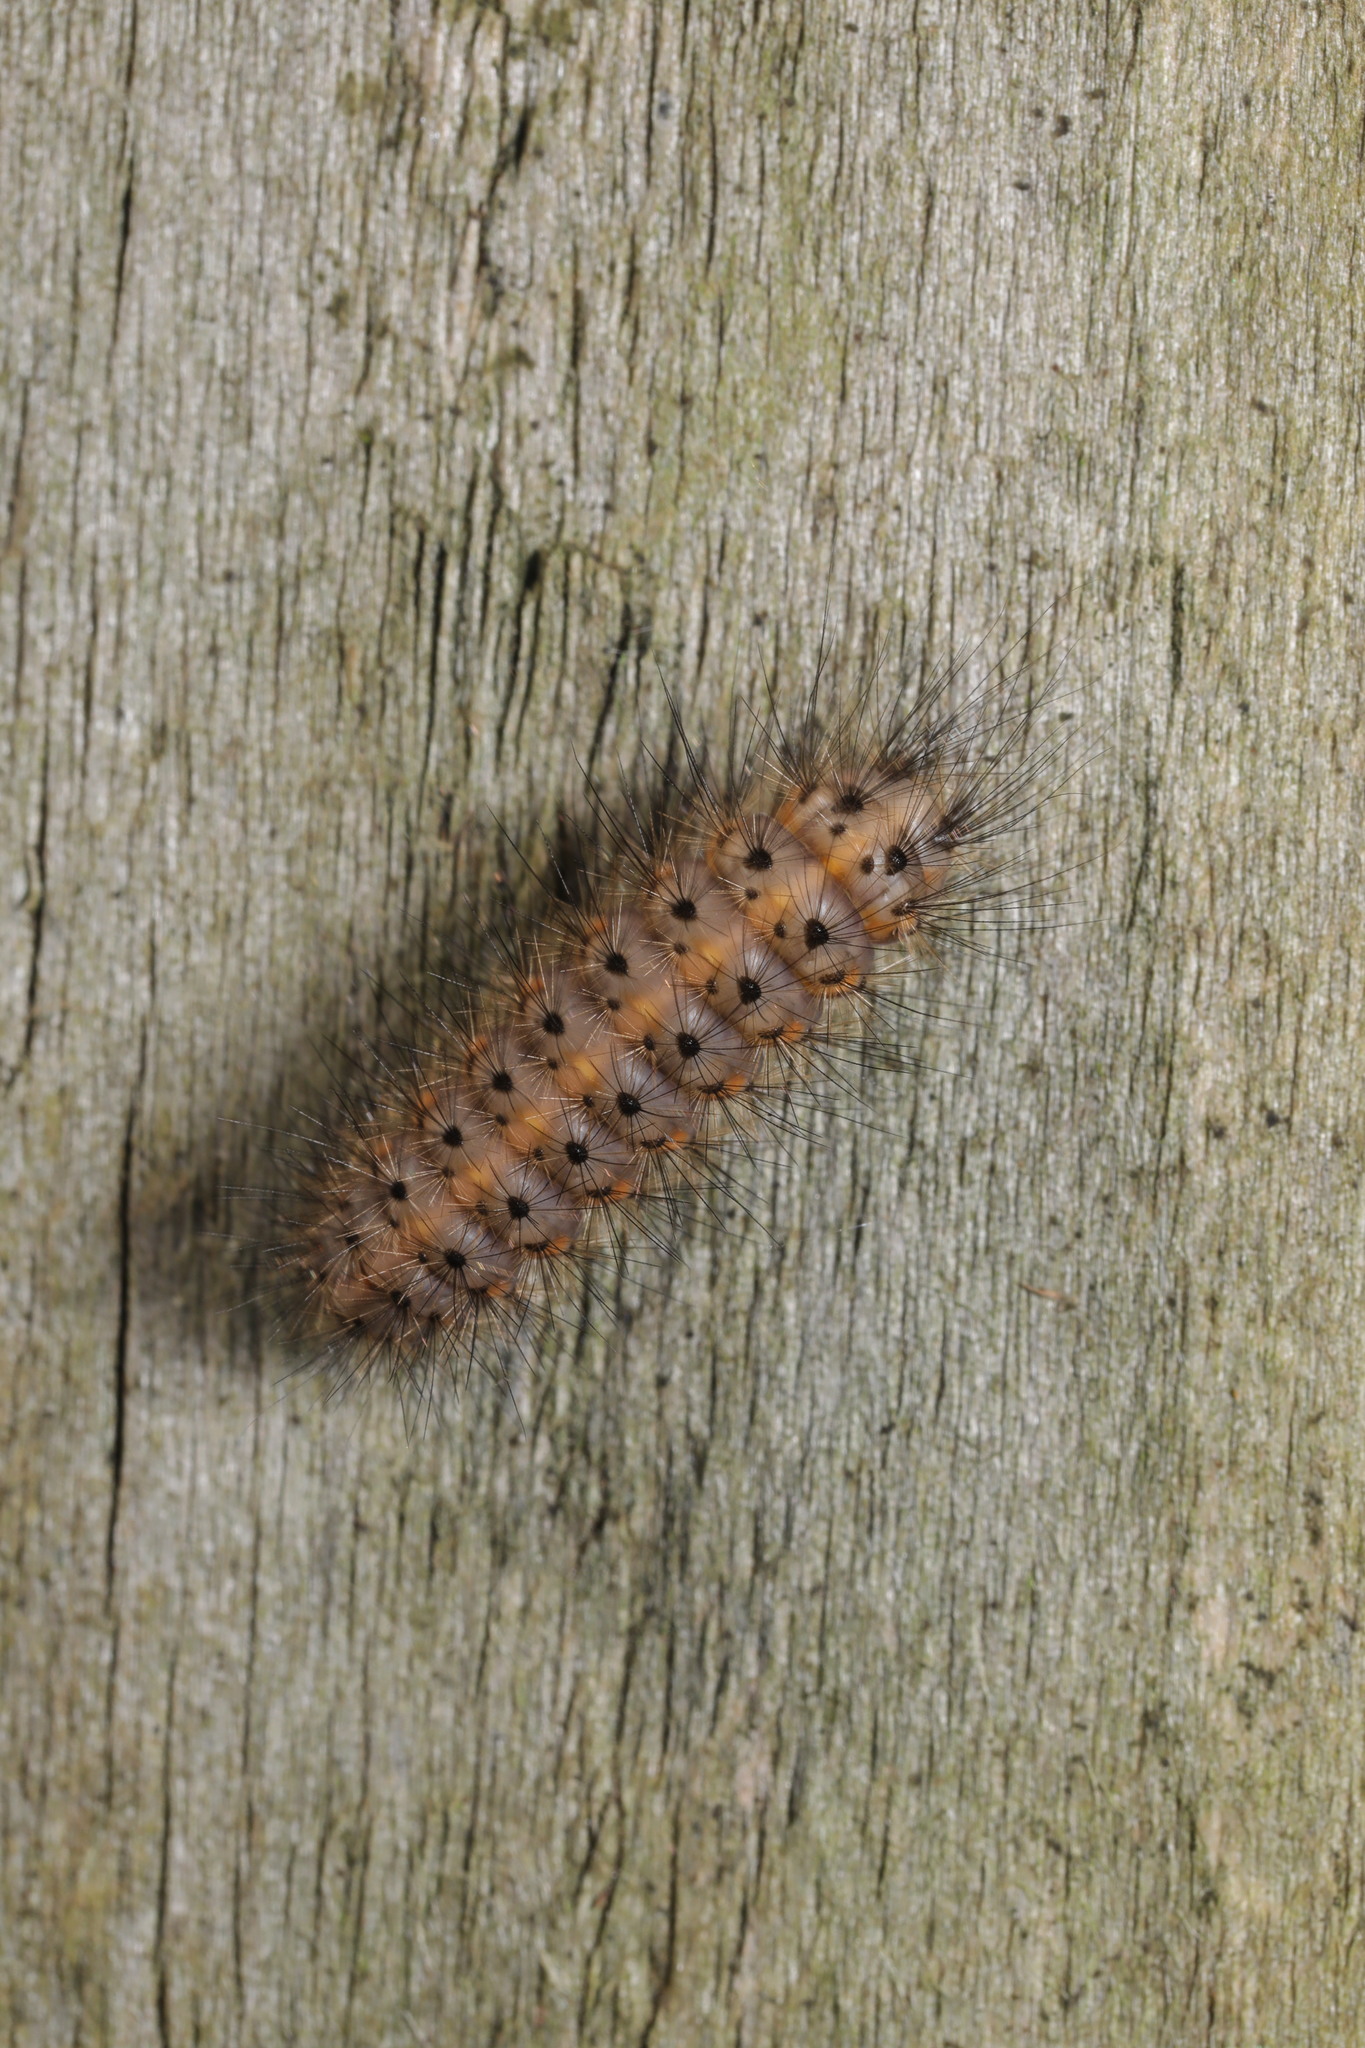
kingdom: Animalia
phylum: Arthropoda
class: Insecta
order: Lepidoptera
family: Erebidae
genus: Spilosoma
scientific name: Spilosoma lubricipeda
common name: White ermine
